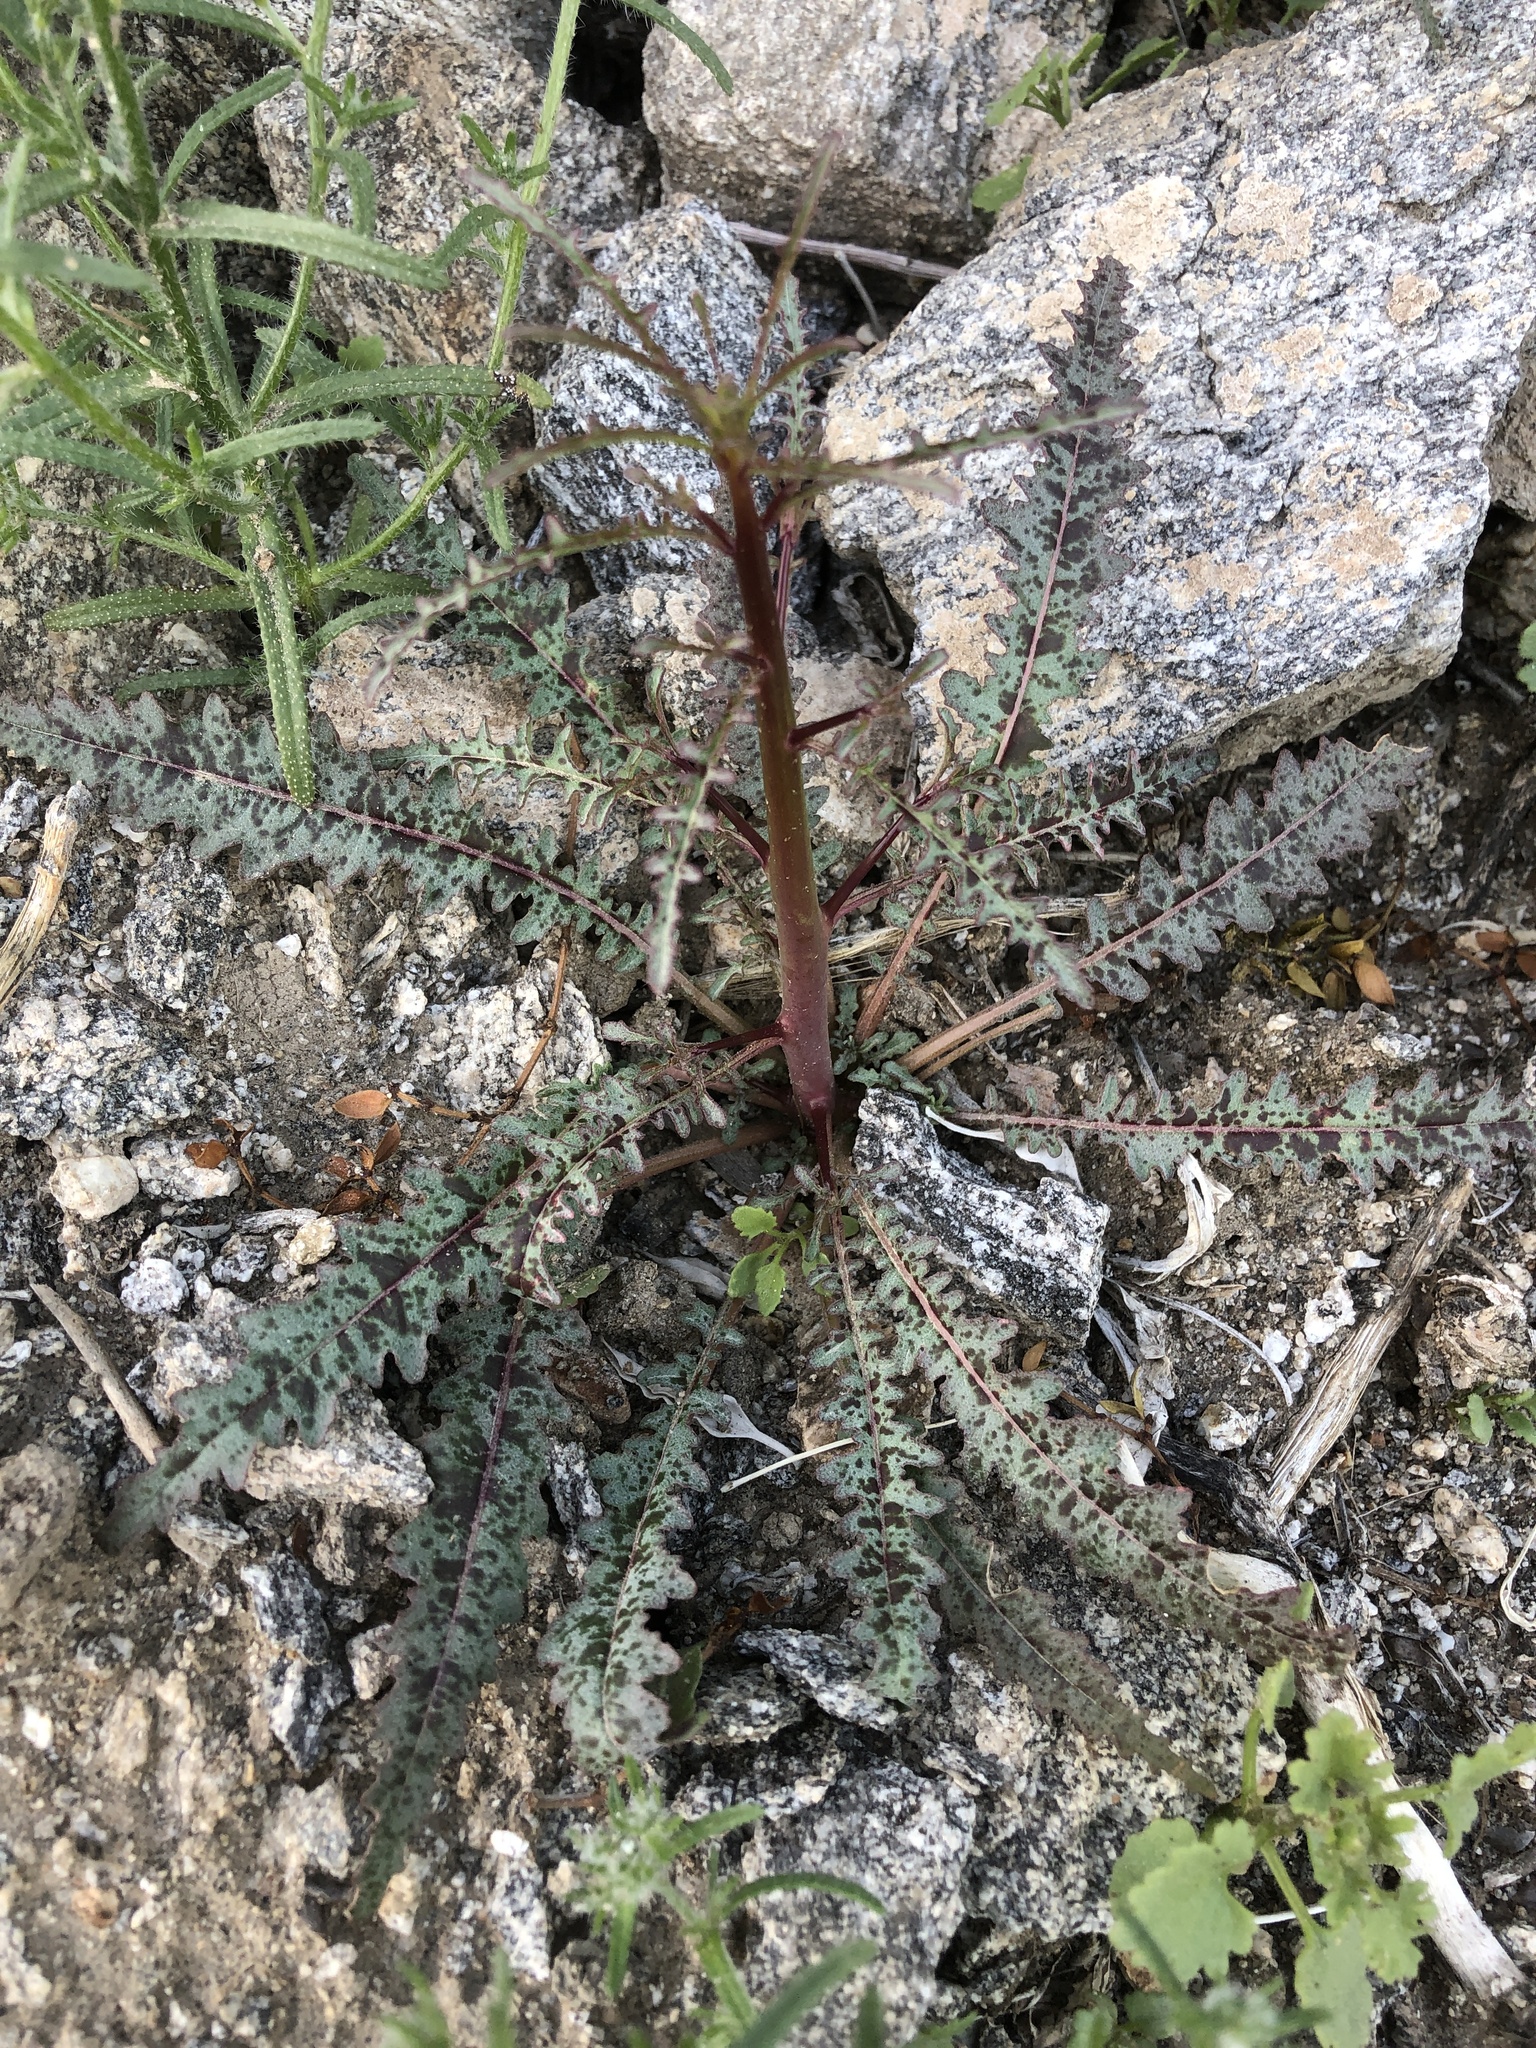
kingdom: Plantae
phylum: Tracheophyta
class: Magnoliopsida
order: Myrtales
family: Onagraceae
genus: Eulobus
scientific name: Eulobus californicus
